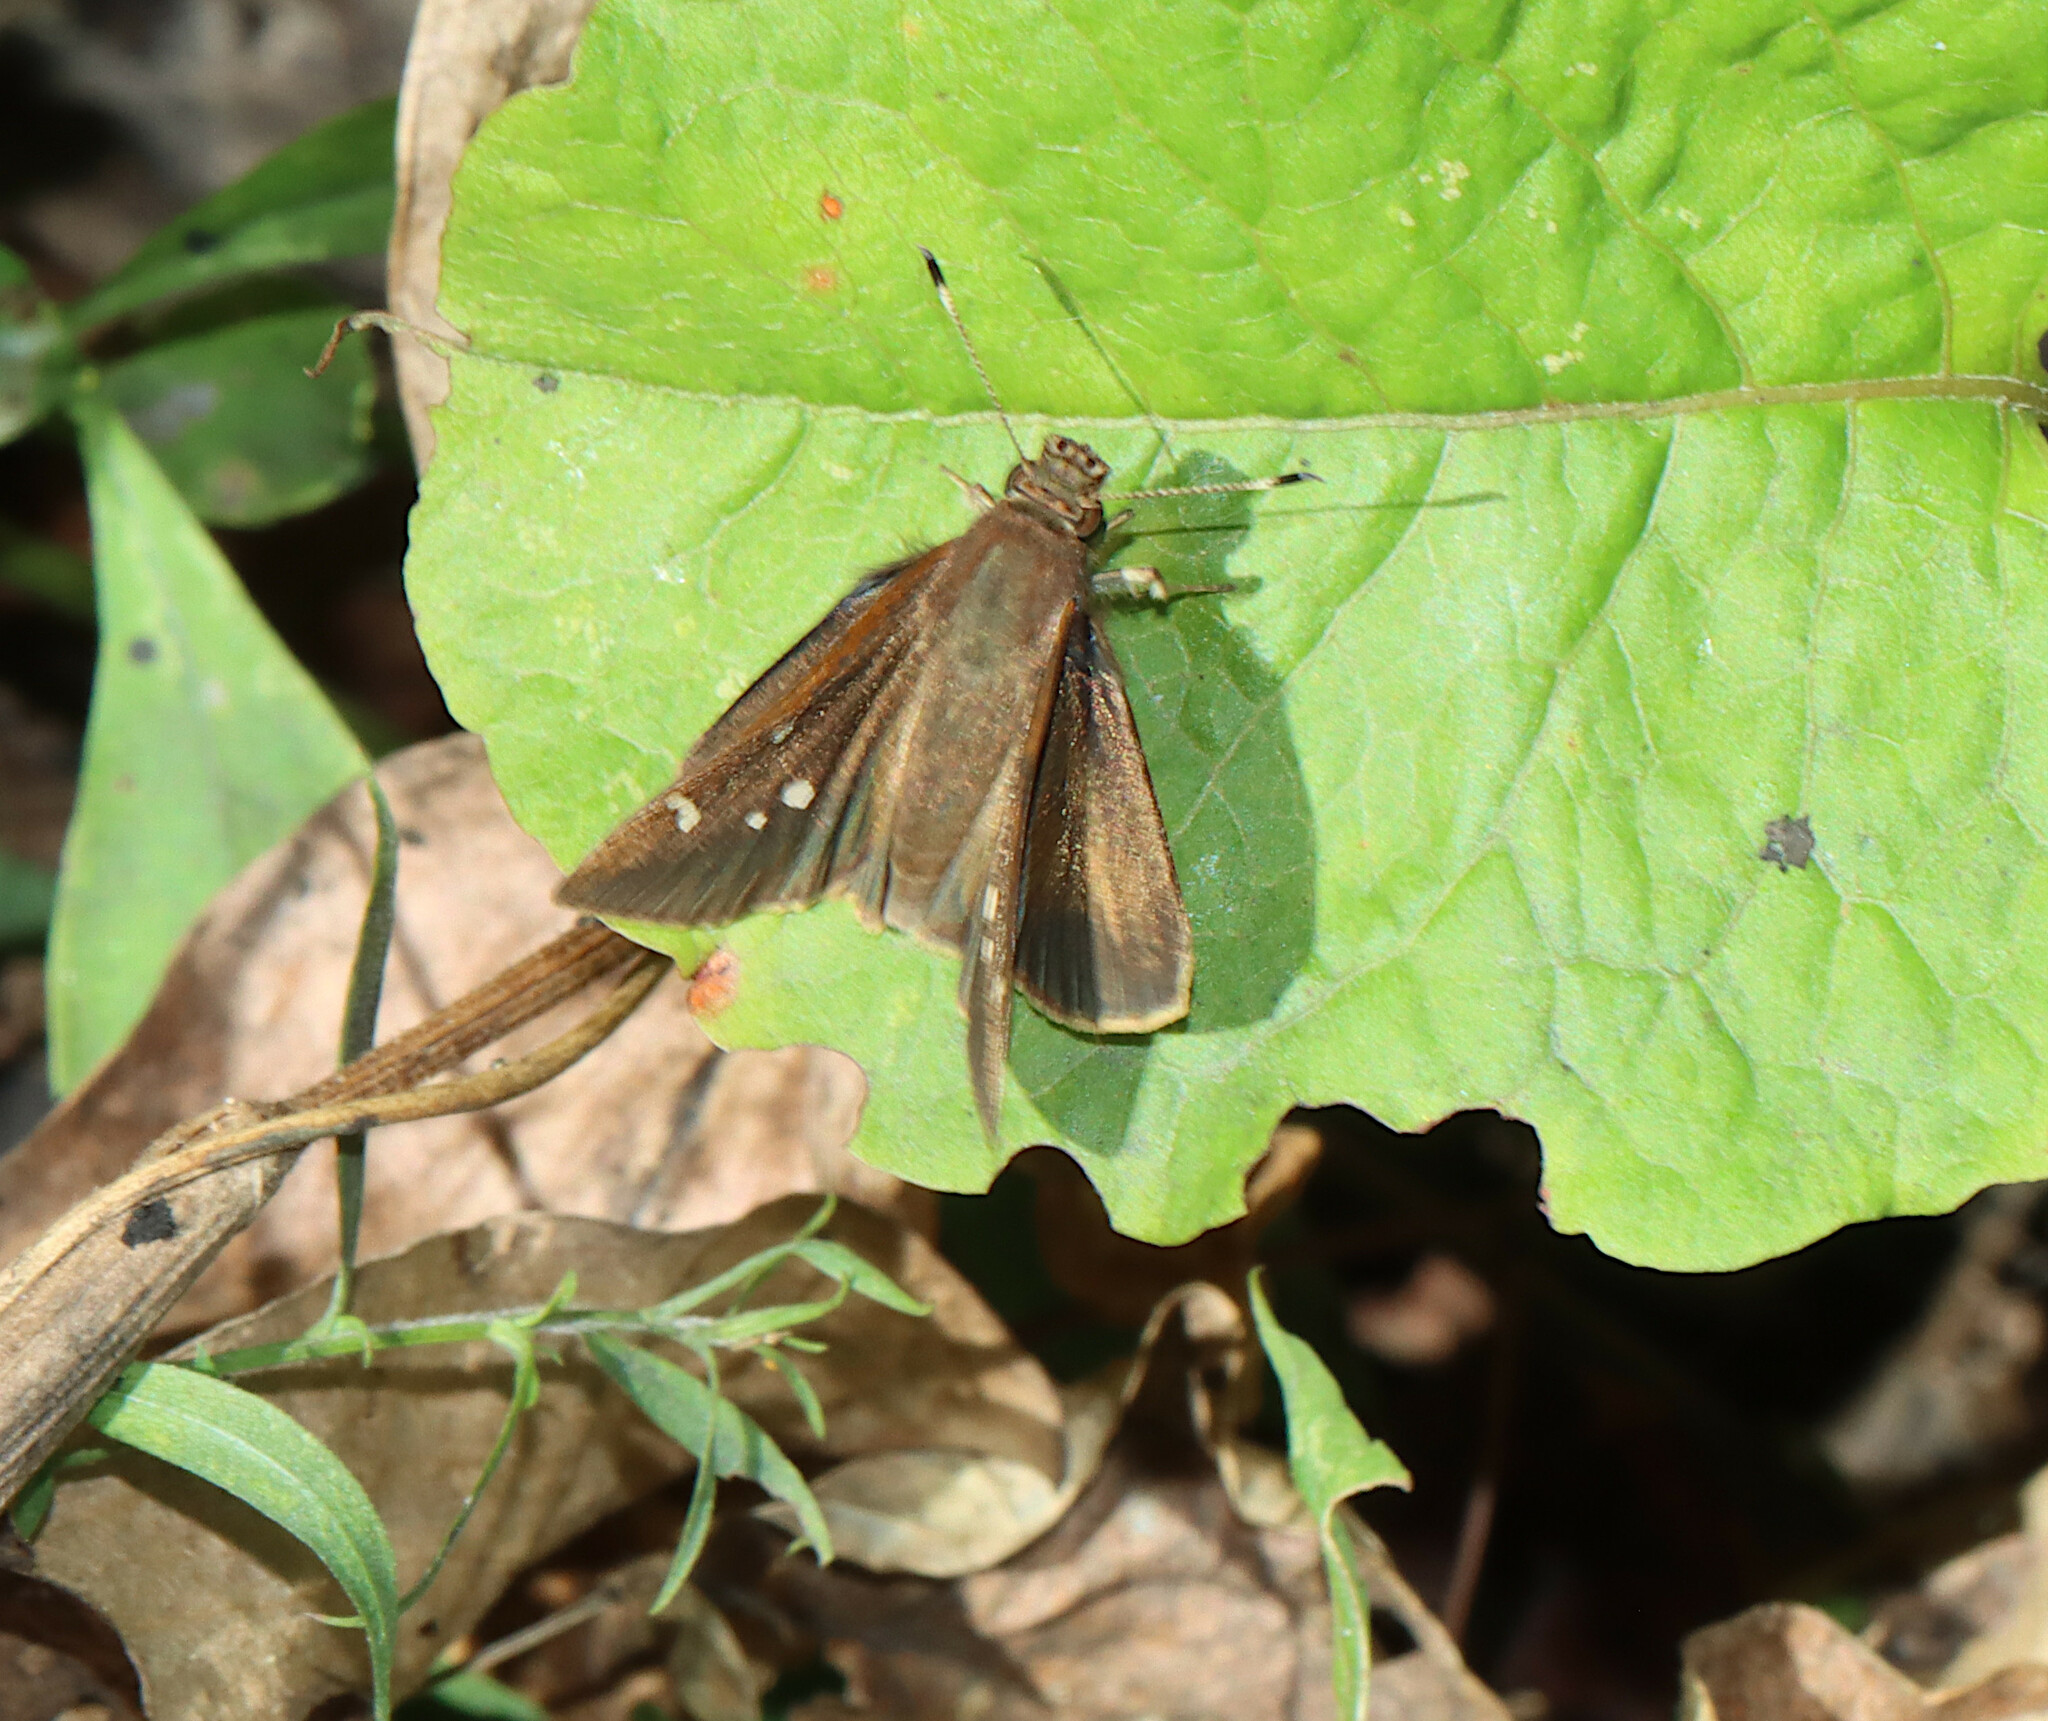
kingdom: Animalia
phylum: Arthropoda
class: Insecta
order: Lepidoptera
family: Hesperiidae
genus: Lerema
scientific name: Lerema accius
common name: Clouded skipper
